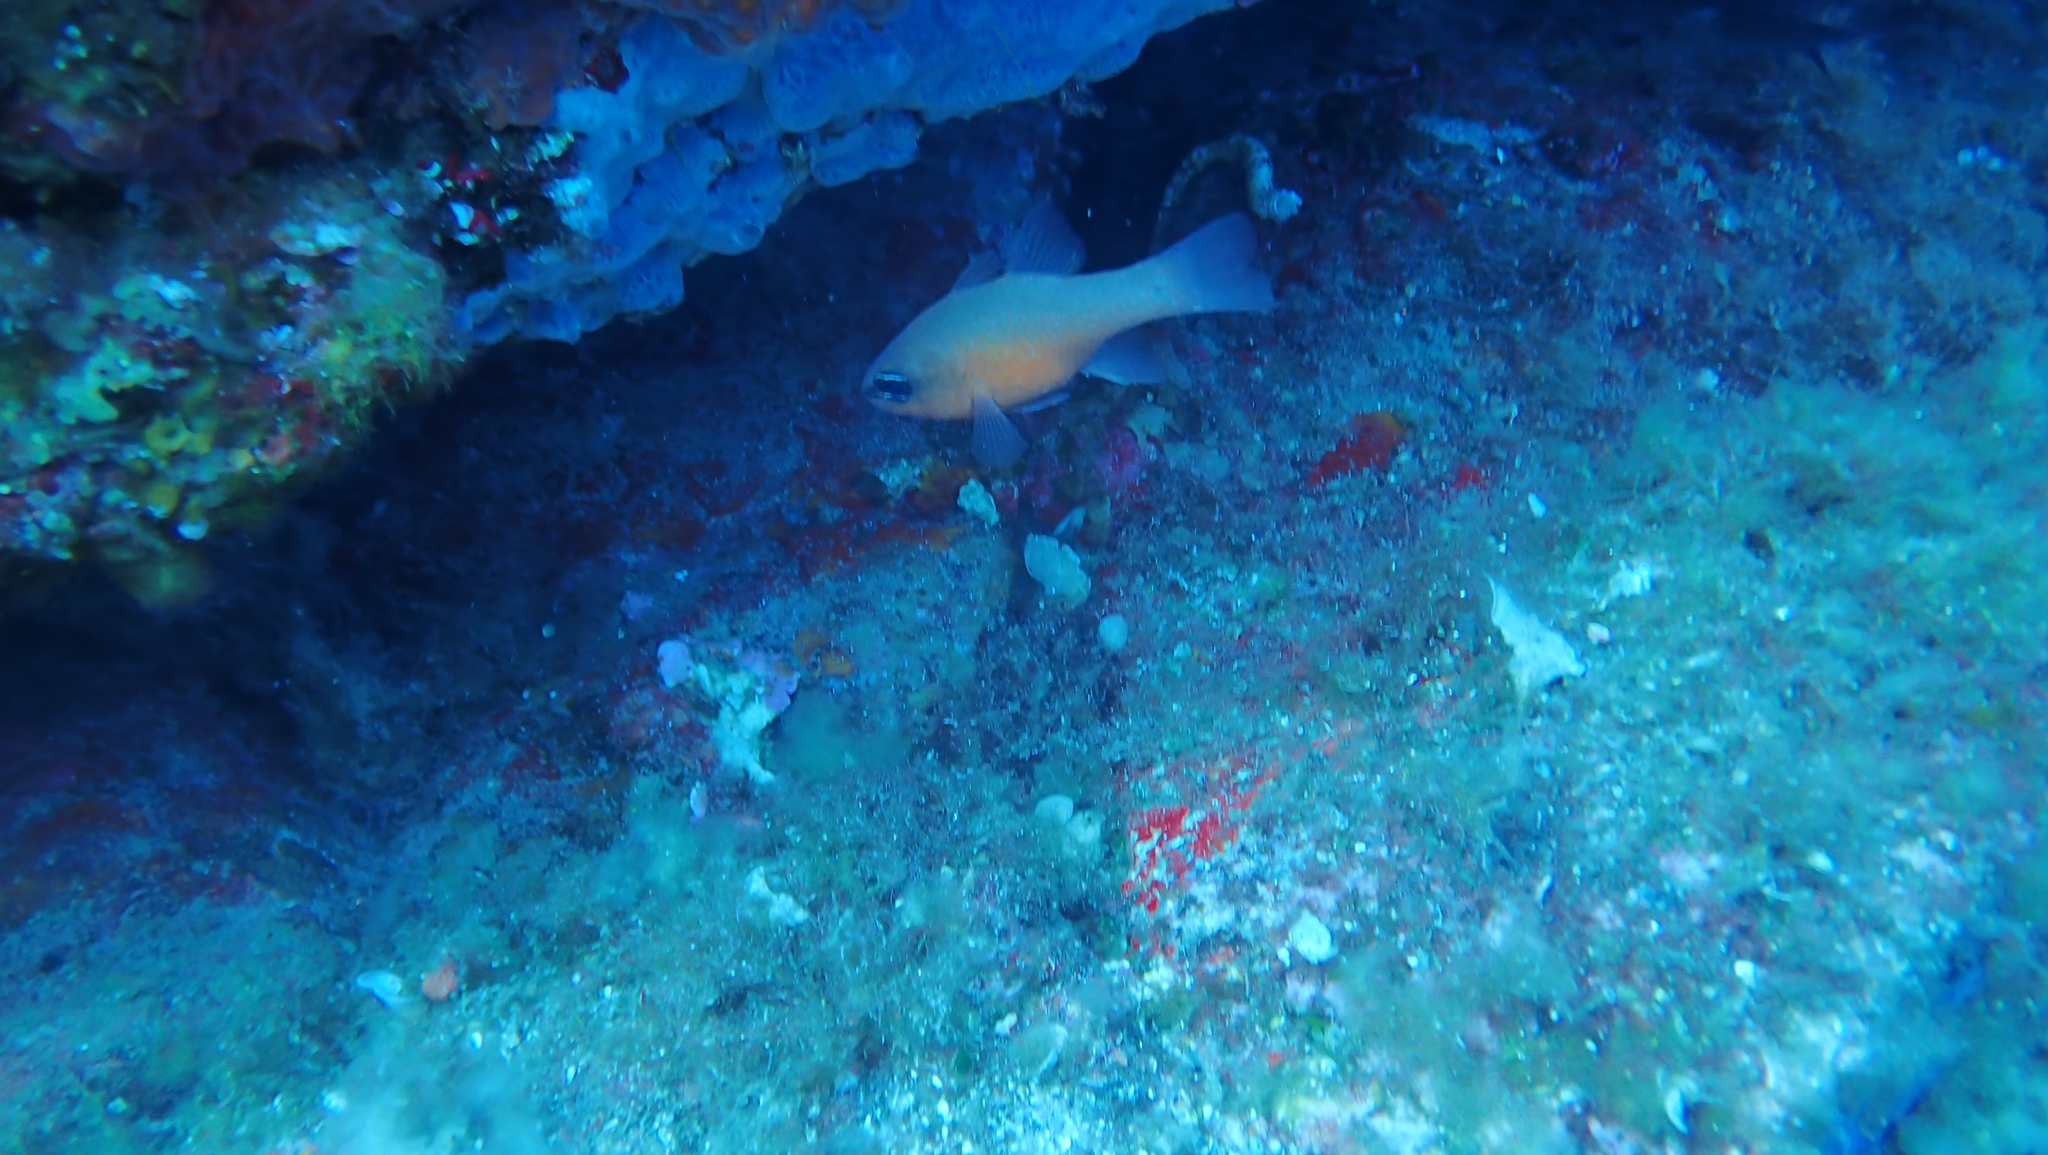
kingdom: Animalia
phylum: Chordata
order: Perciformes
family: Apogonidae
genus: Apogon
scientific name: Apogon imberbis
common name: Cardinal fish
